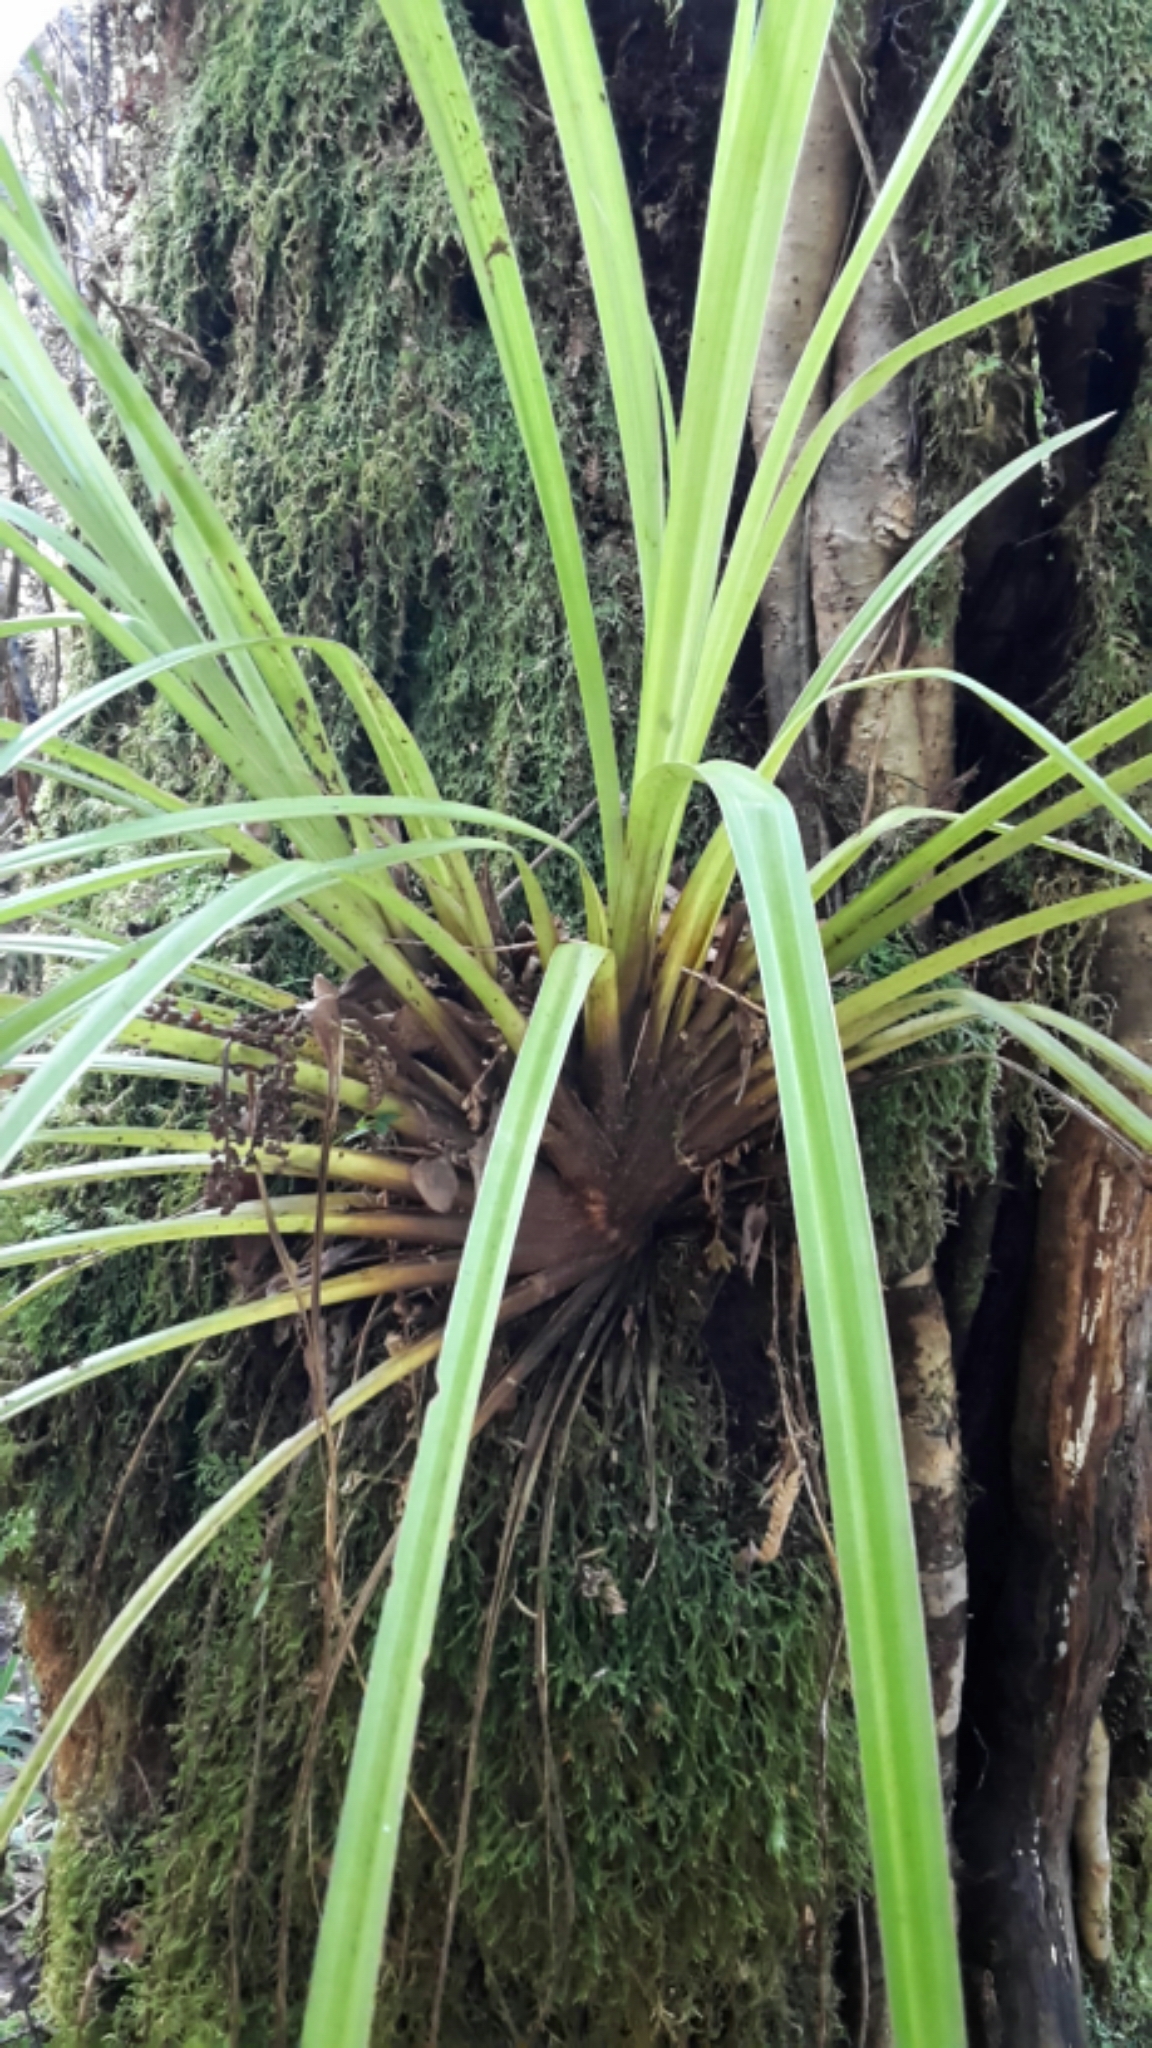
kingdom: Plantae
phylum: Tracheophyta
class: Liliopsida
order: Asparagales
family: Asteliaceae
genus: Astelia
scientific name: Astelia microsperma
